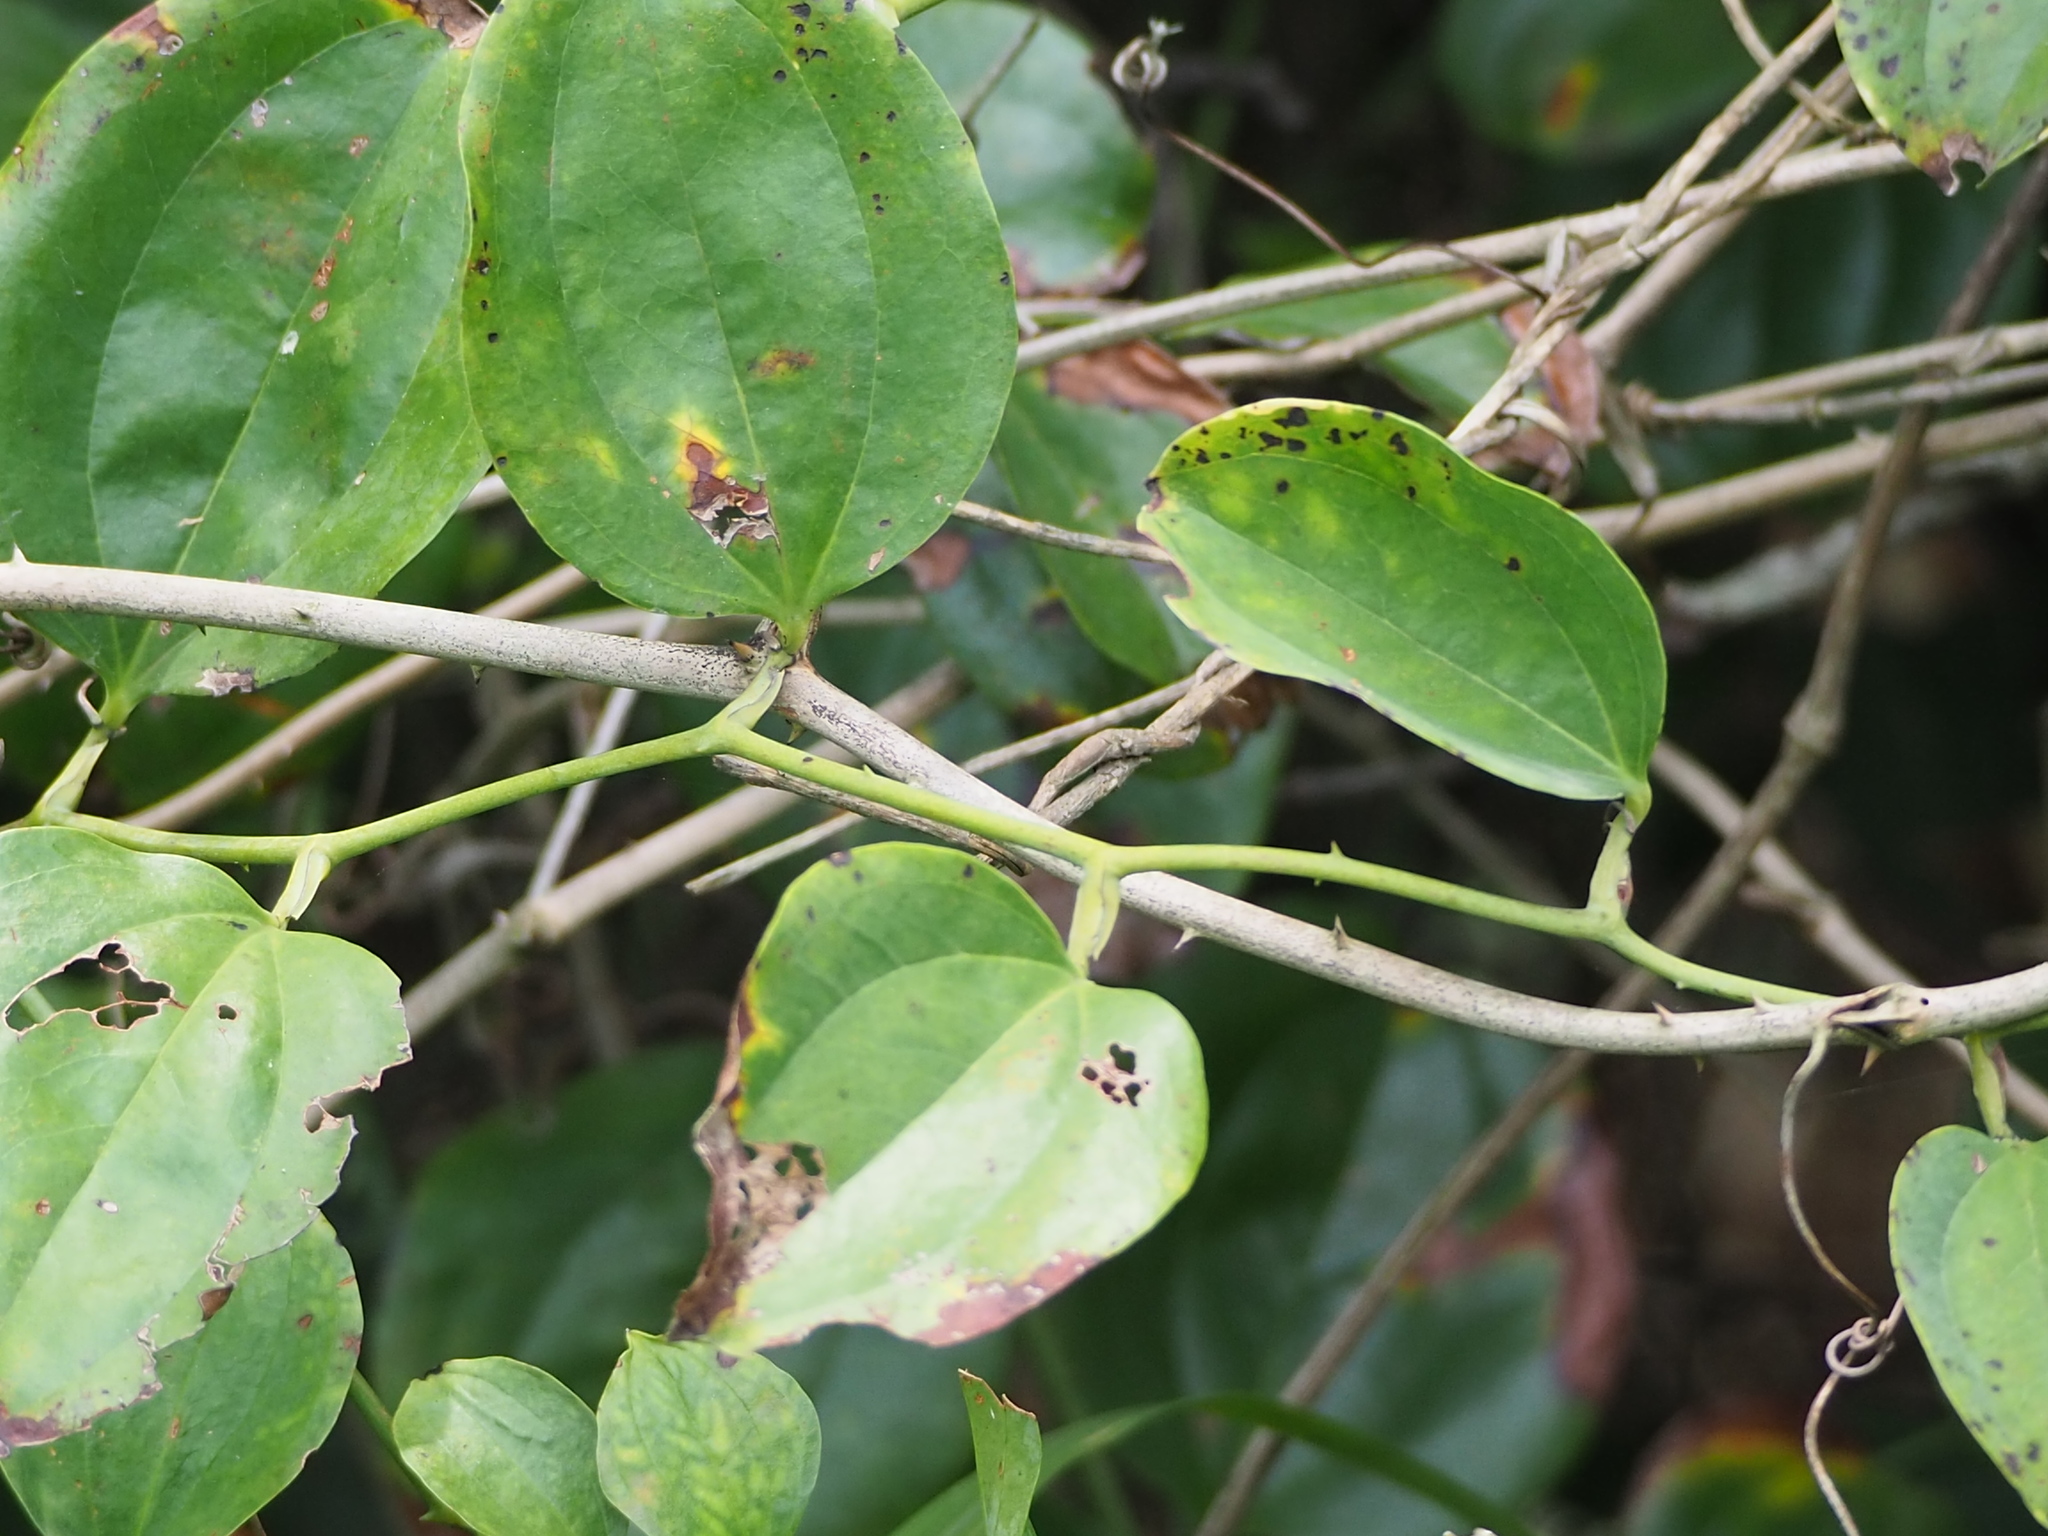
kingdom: Plantae
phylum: Tracheophyta
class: Liliopsida
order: Liliales
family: Smilacaceae
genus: Smilax
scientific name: Smilax china
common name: Chinaroot
